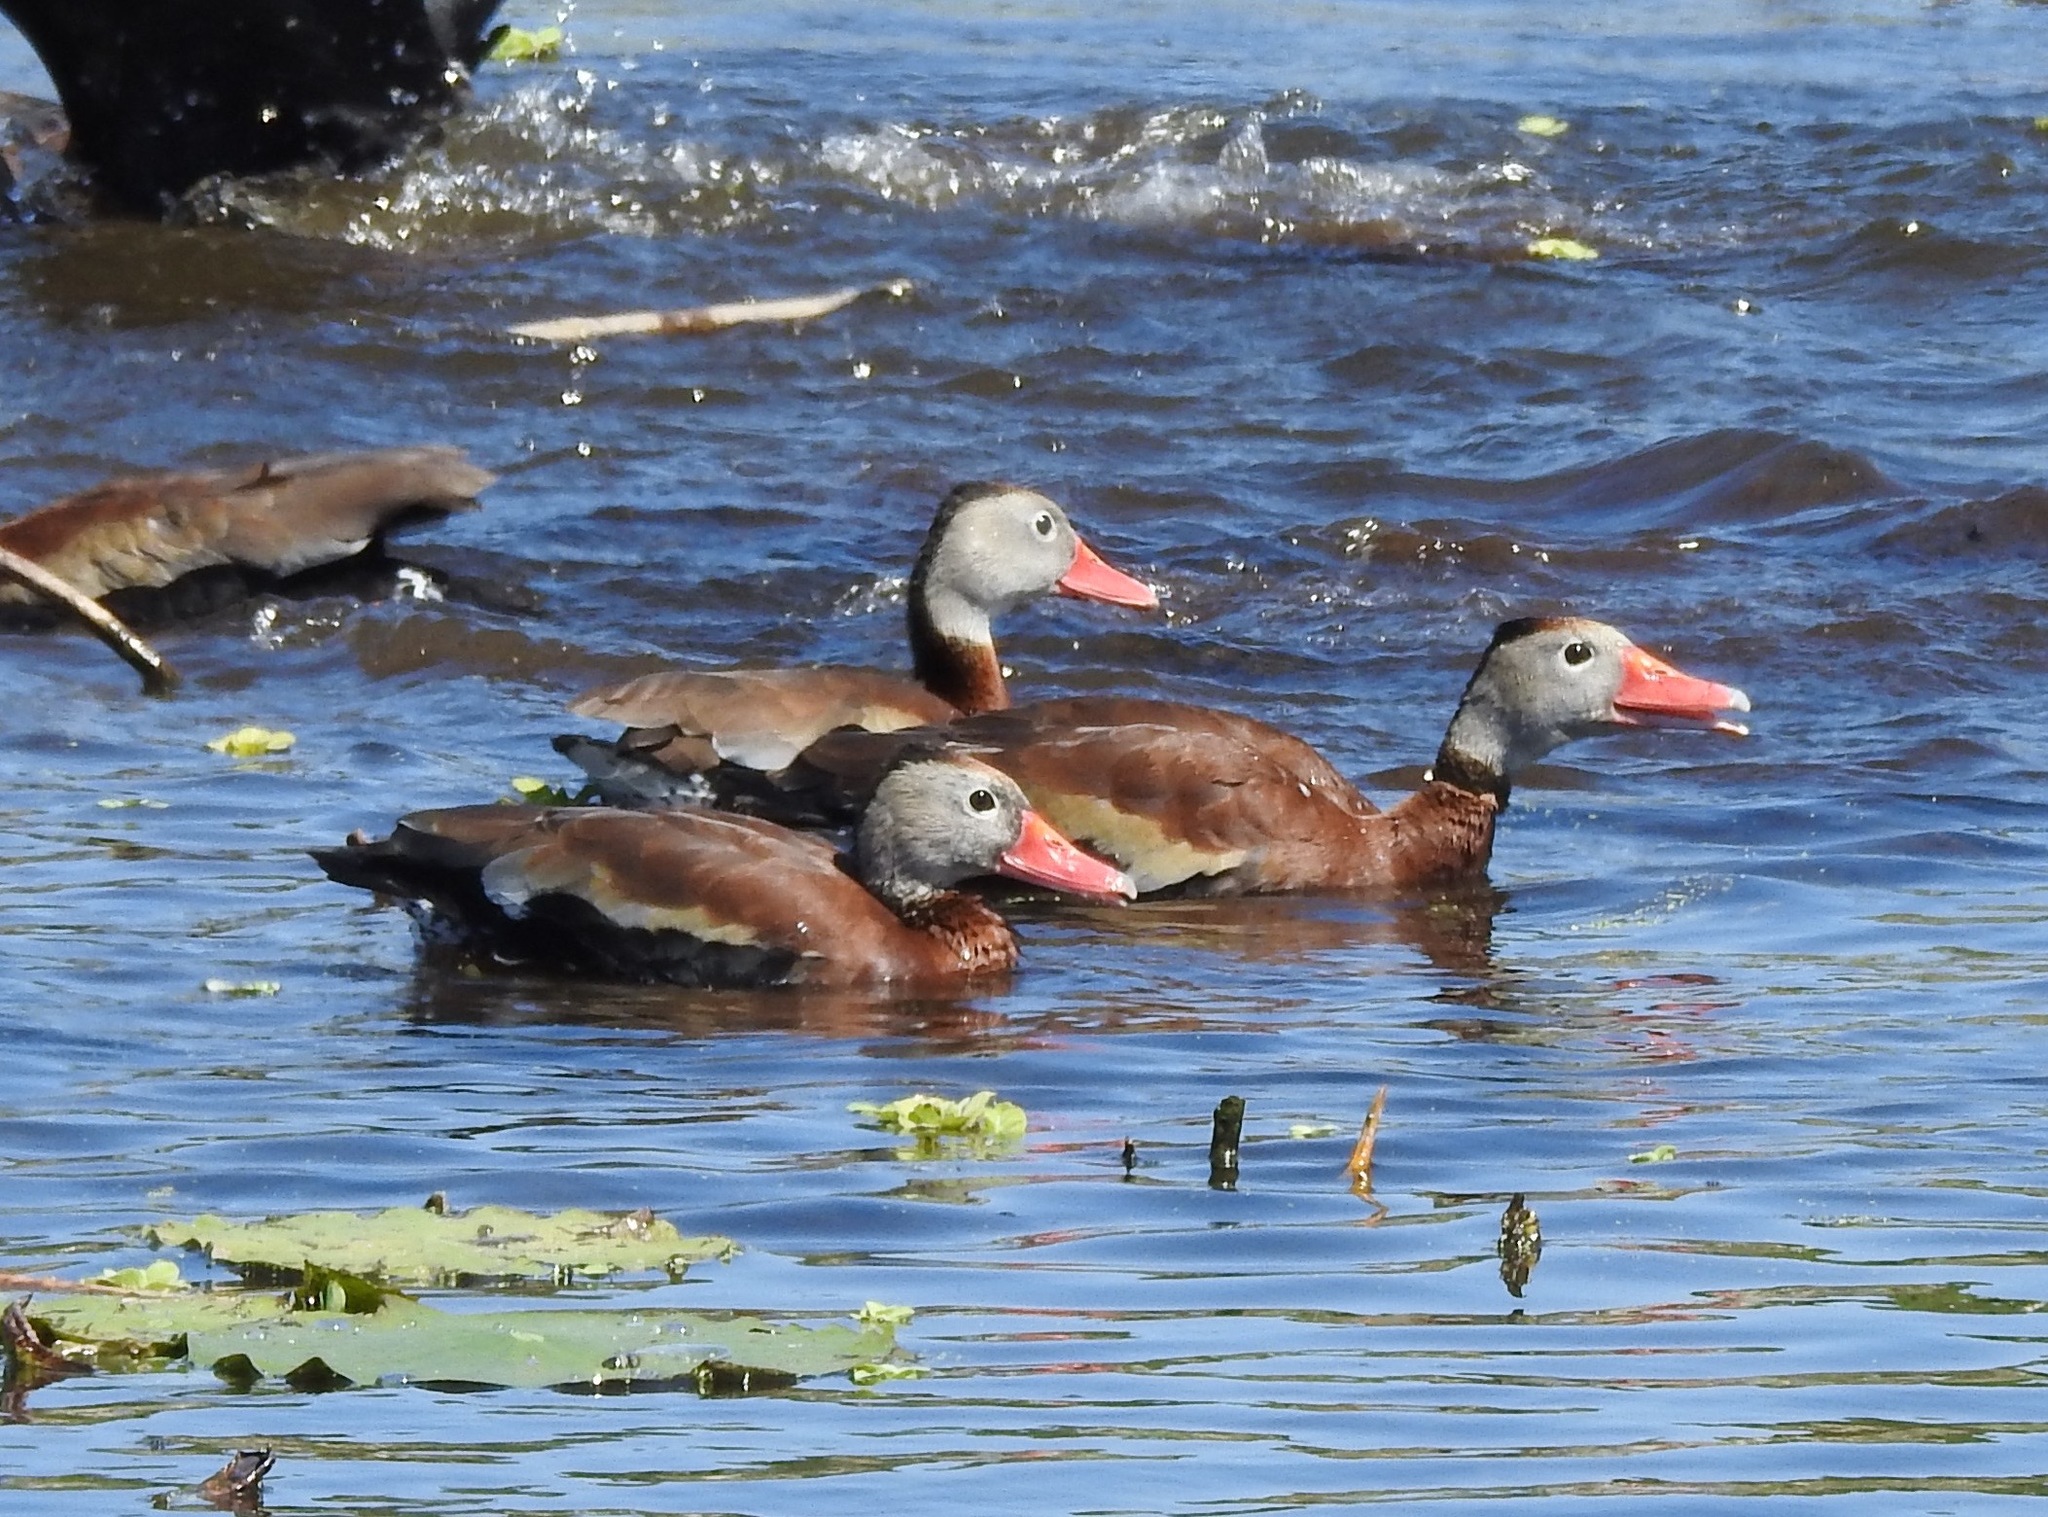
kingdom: Animalia
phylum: Chordata
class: Aves
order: Anseriformes
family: Anatidae
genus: Dendrocygna
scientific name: Dendrocygna autumnalis
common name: Black-bellied whistling duck
